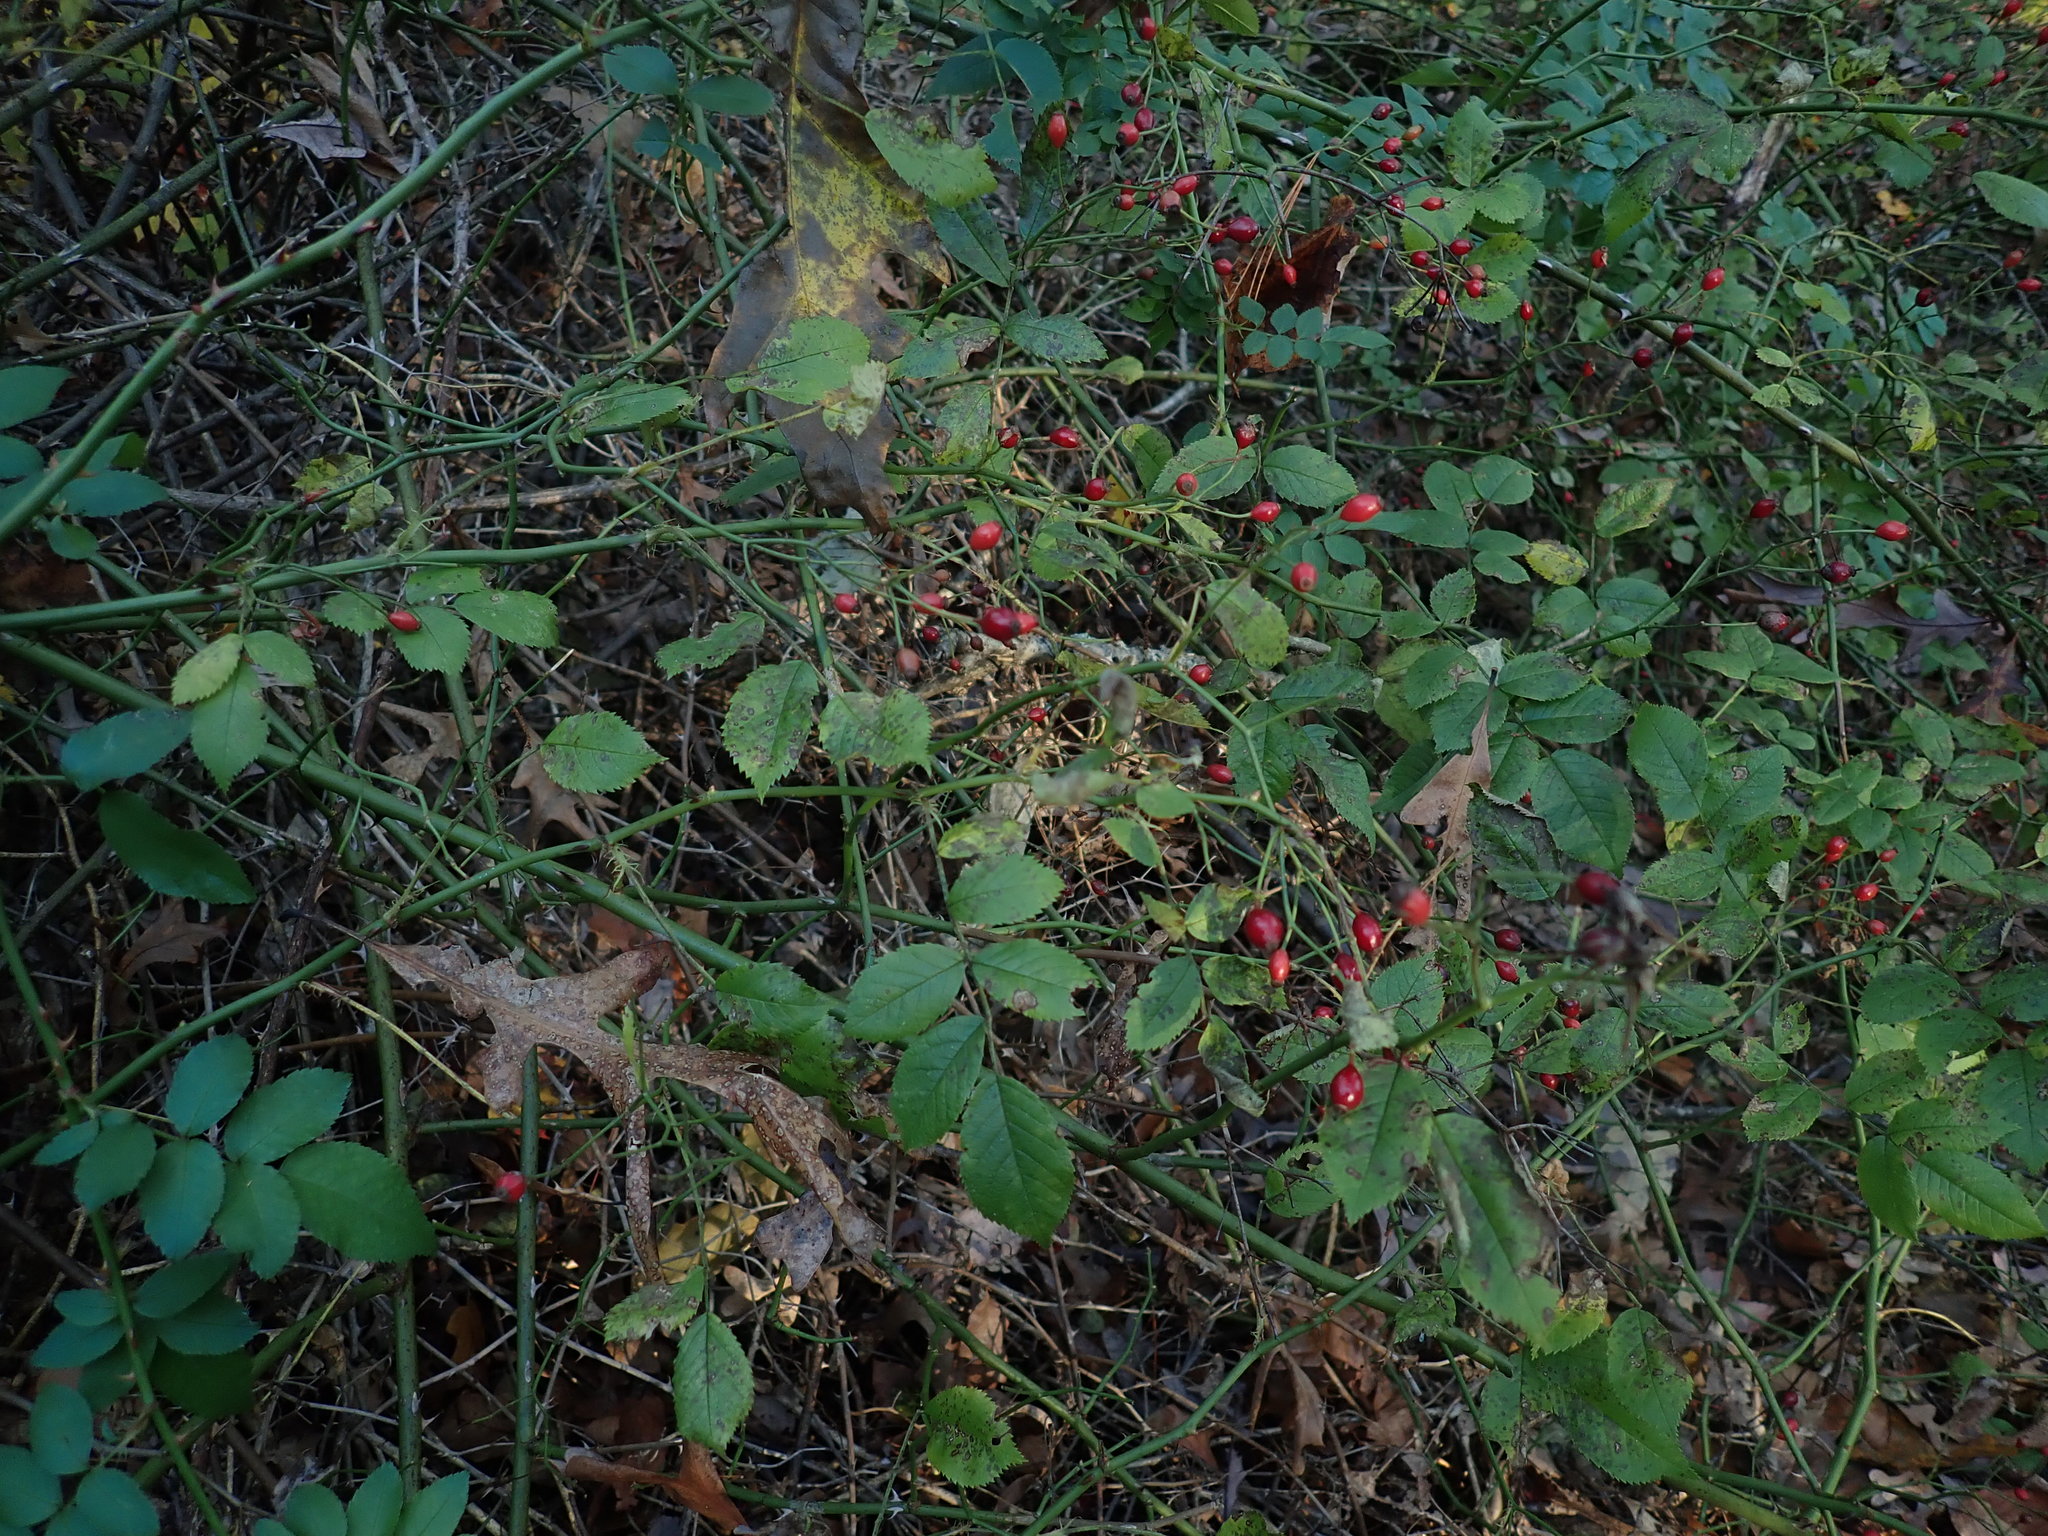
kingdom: Plantae
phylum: Tracheophyta
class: Magnoliopsida
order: Rosales
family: Rosaceae
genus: Rosa
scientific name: Rosa multiflora
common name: Multiflora rose
